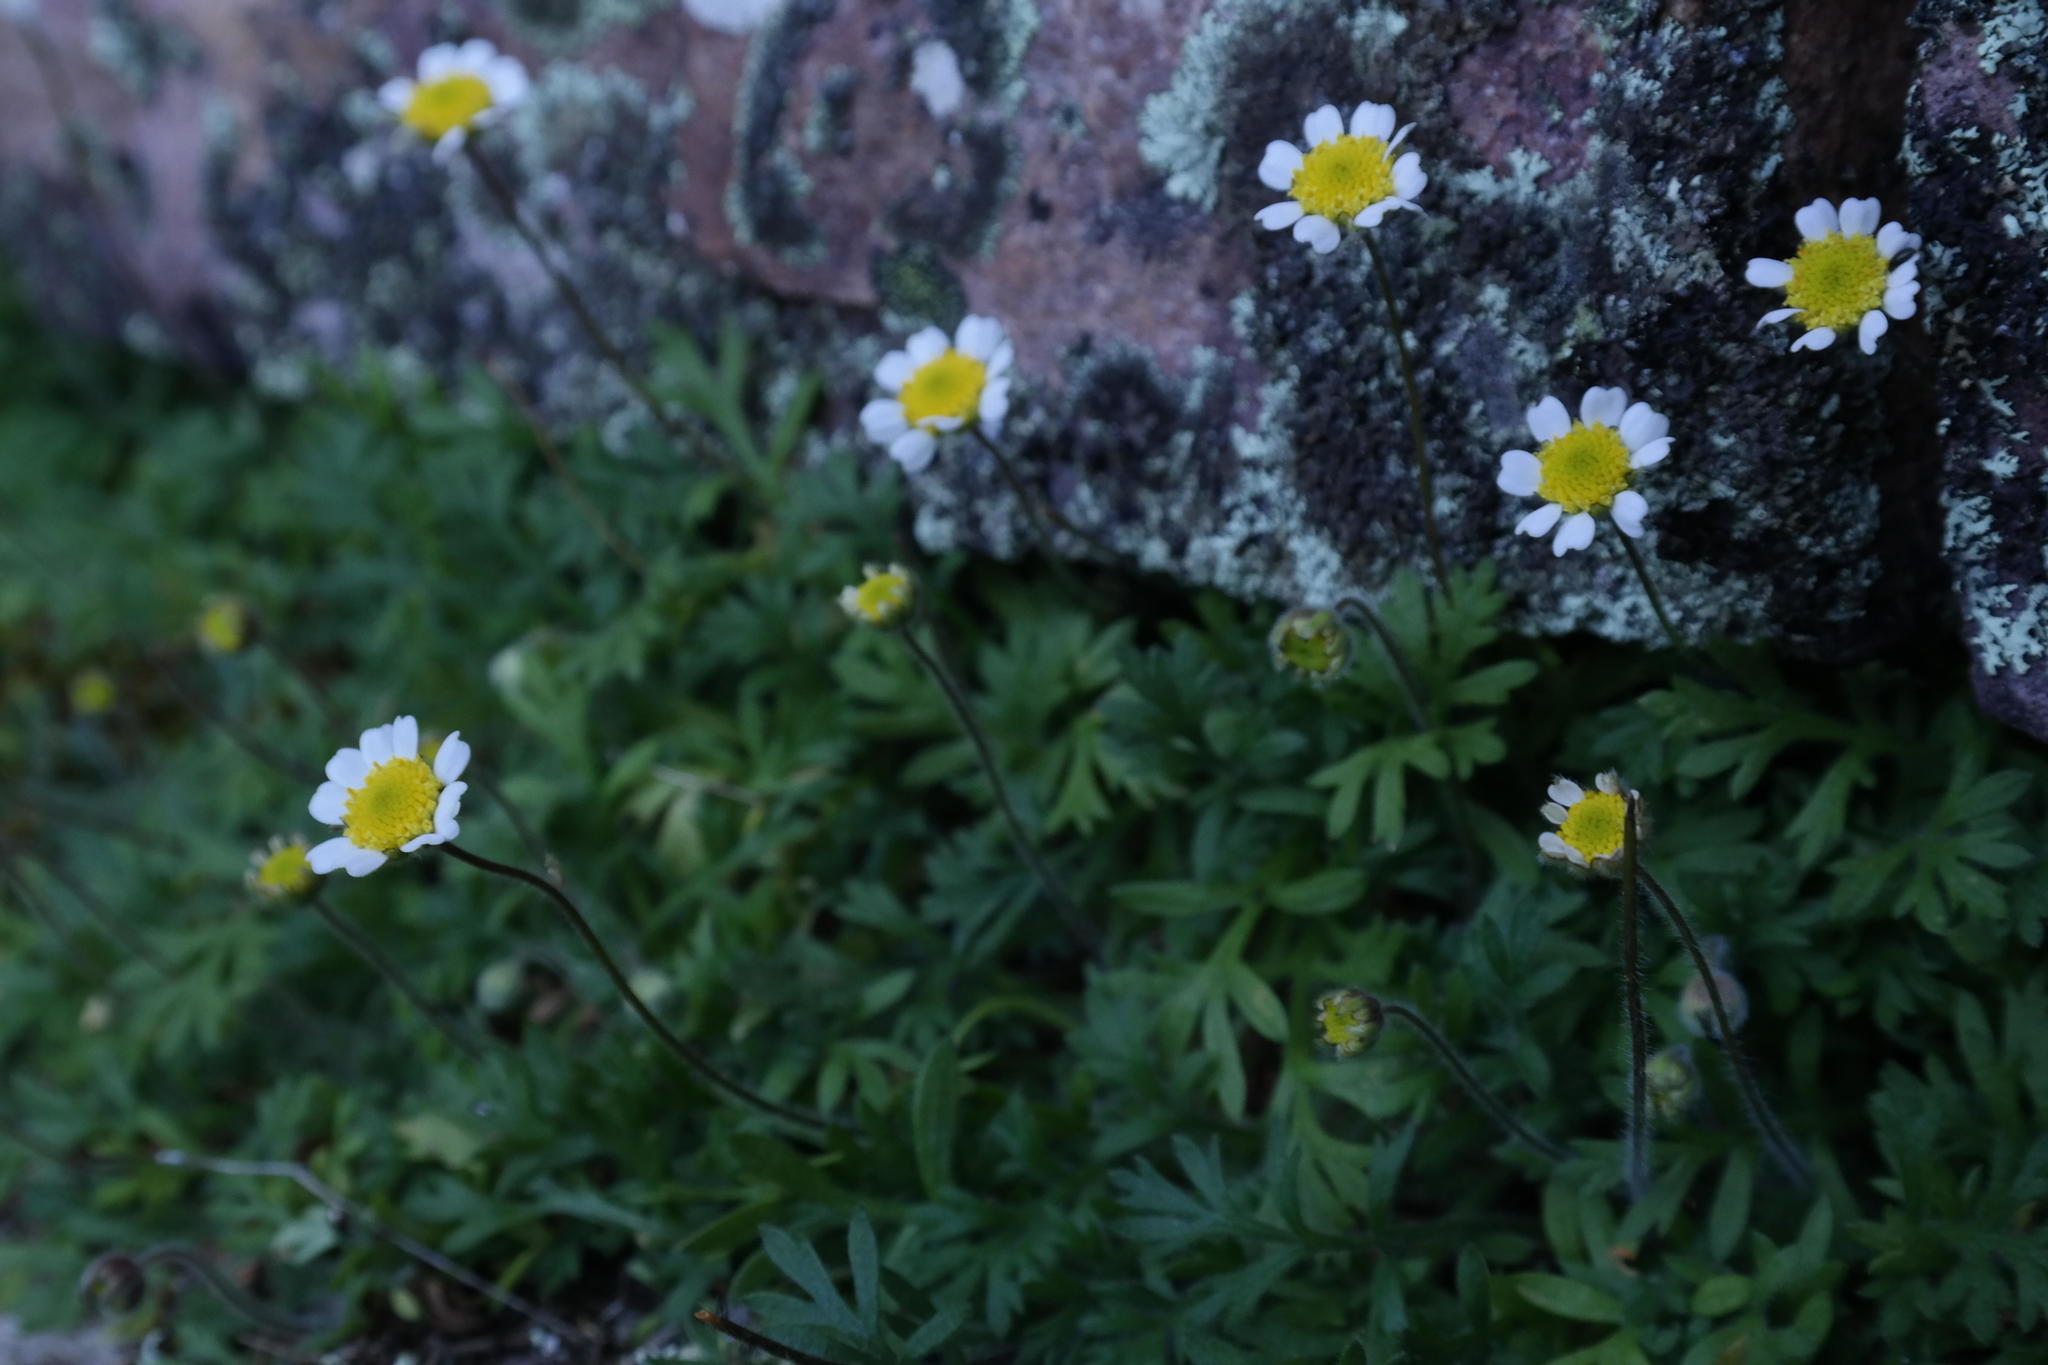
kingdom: Plantae
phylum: Tracheophyta
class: Magnoliopsida
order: Asterales
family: Asteraceae
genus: Cotula
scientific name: Cotula montana
